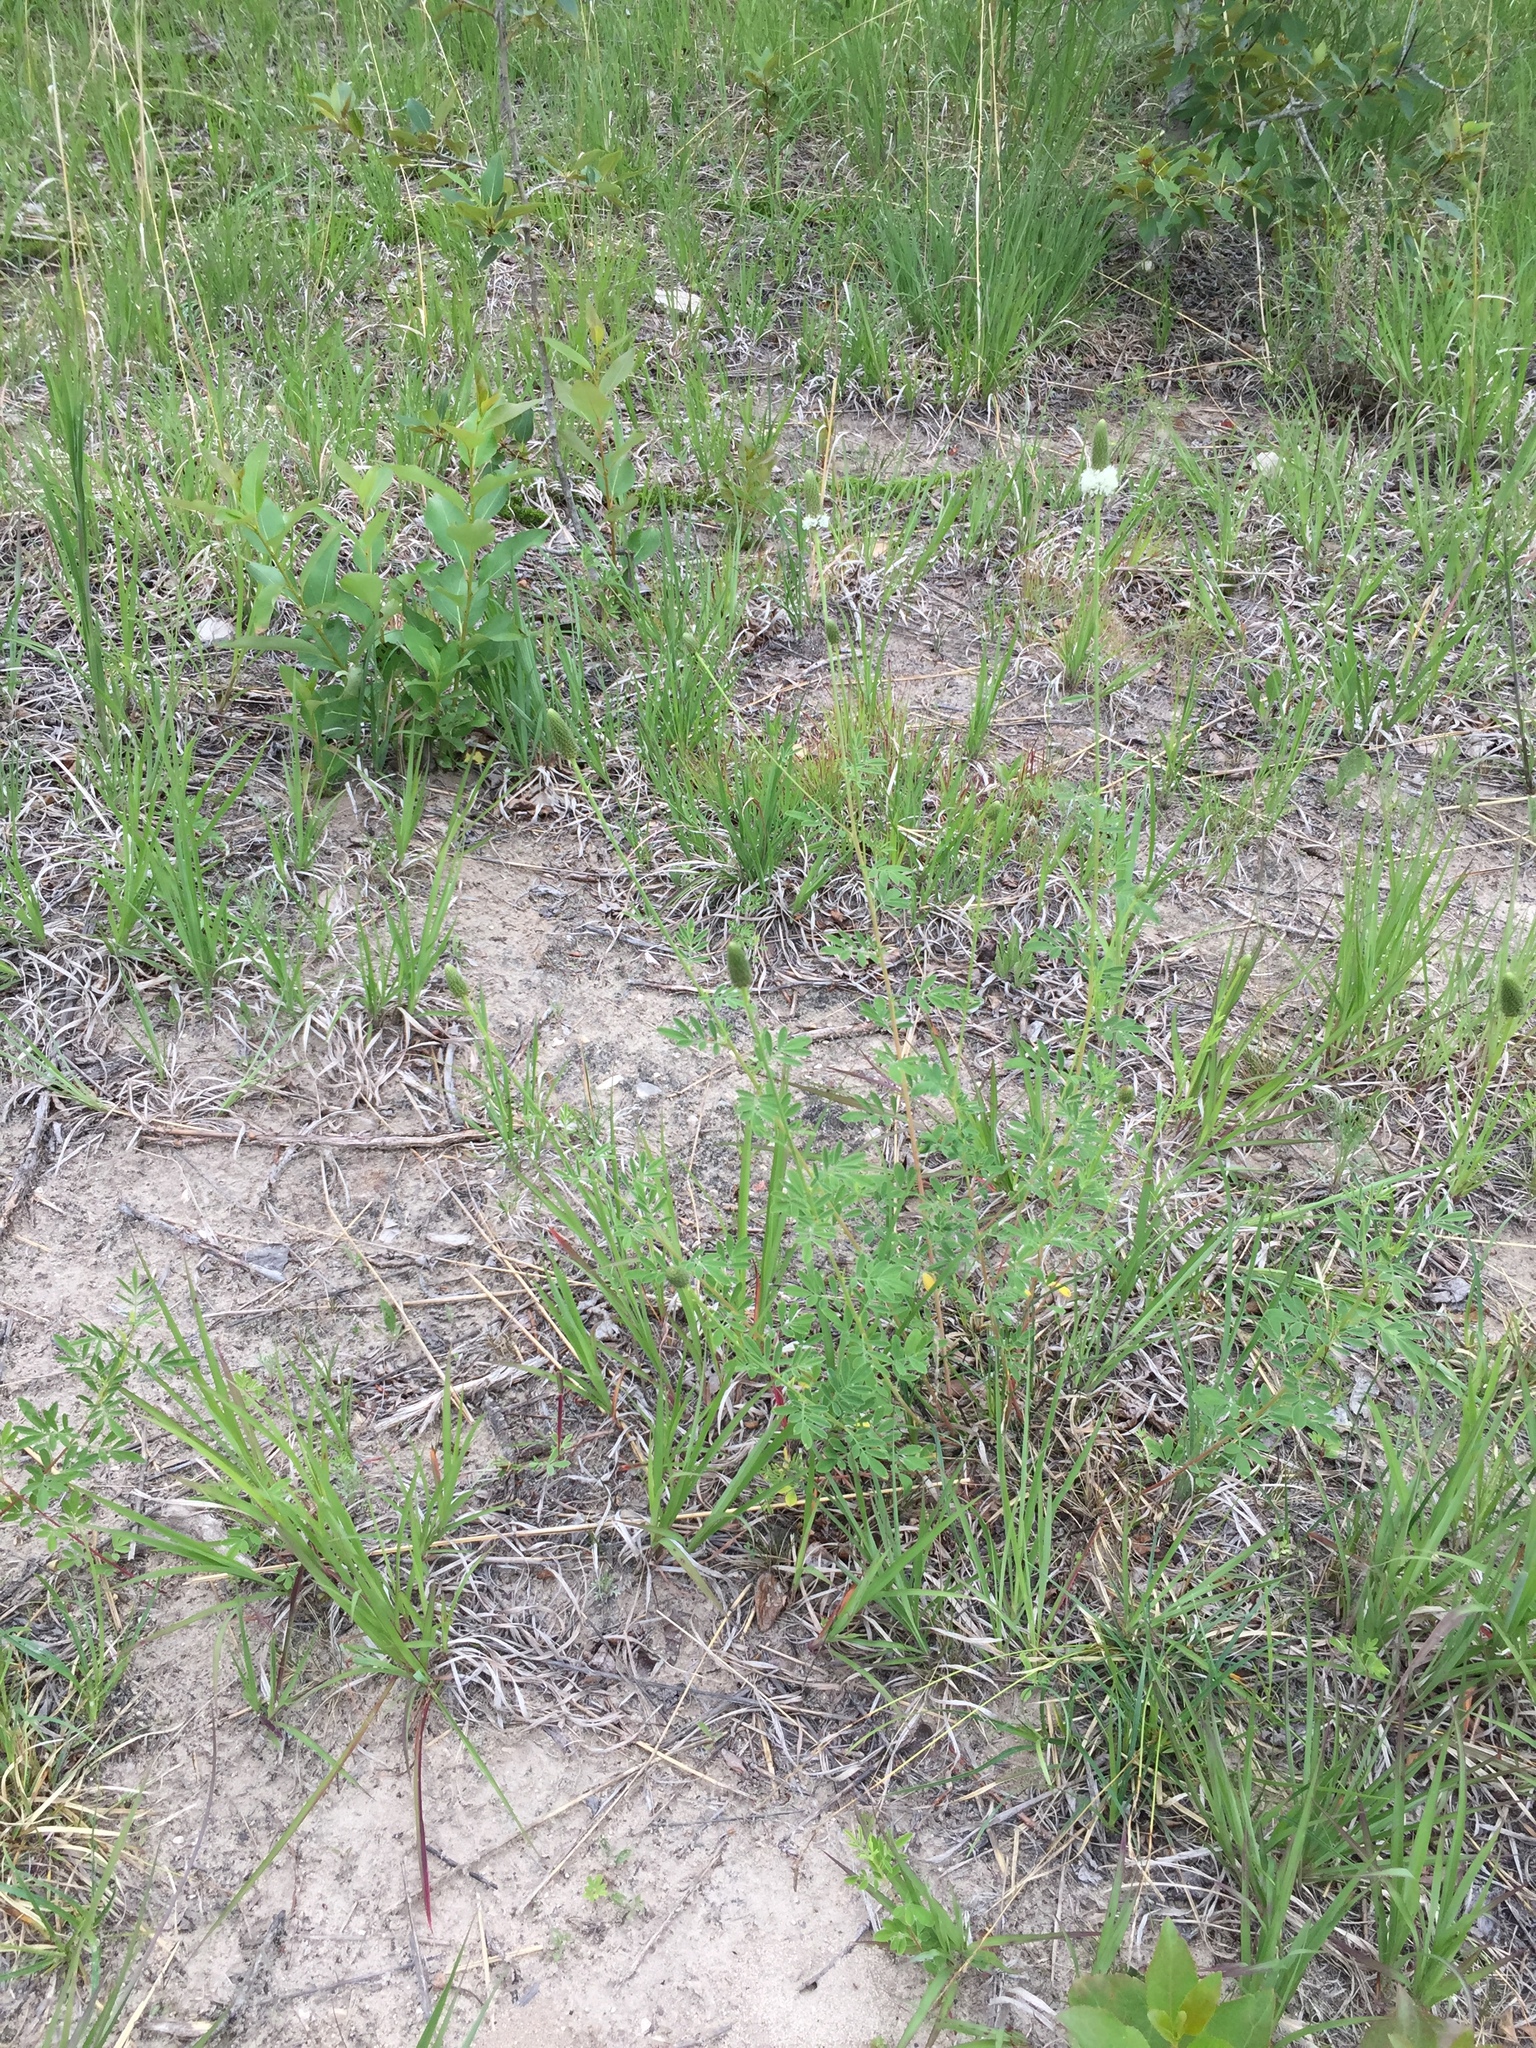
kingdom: Plantae
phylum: Tracheophyta
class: Magnoliopsida
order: Fabales
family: Fabaceae
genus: Dalea
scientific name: Dalea candida
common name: White prairie-clover
